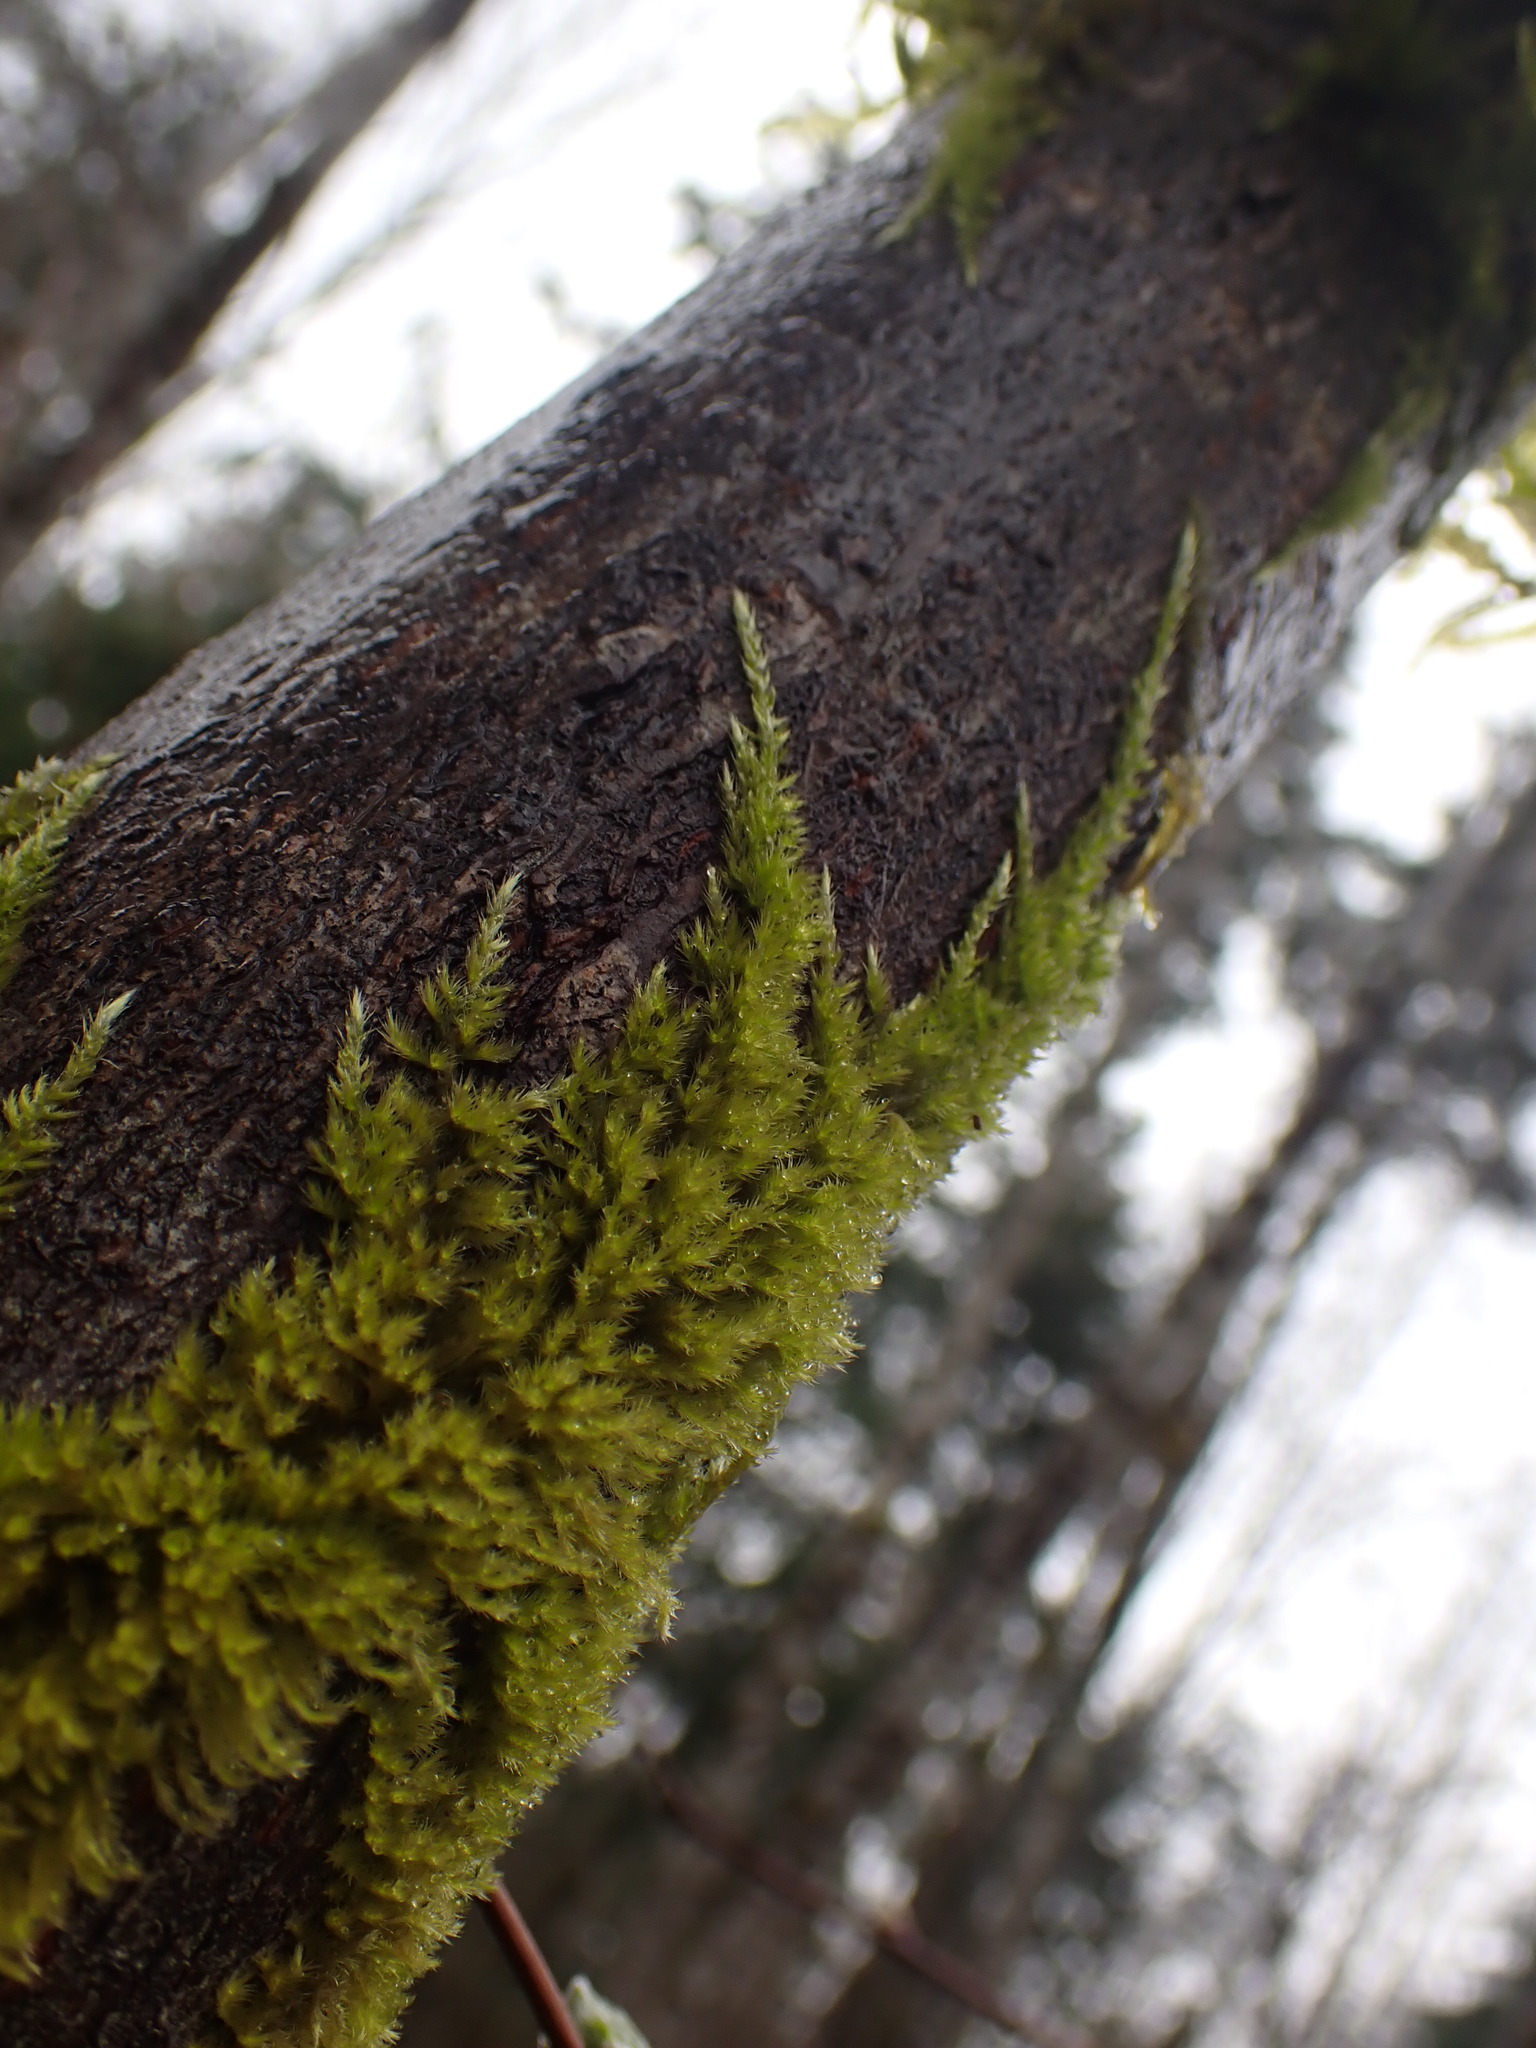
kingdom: Plantae
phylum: Bryophyta
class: Bryopsida
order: Hypnales
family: Brachytheciaceae
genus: Homalothecium
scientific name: Homalothecium nuttallii
